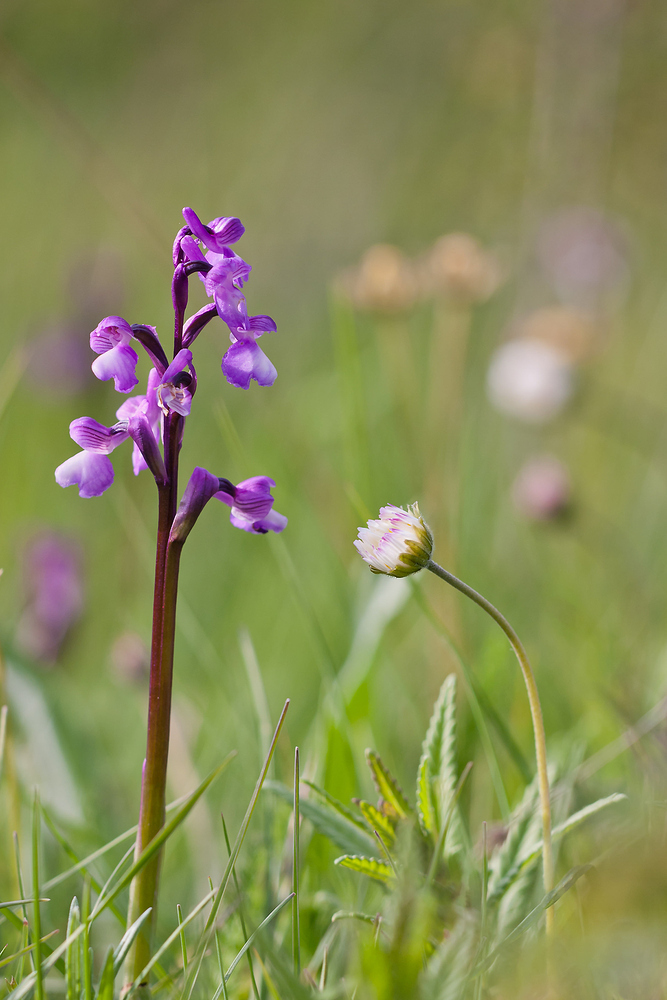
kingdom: Plantae
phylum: Tracheophyta
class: Liliopsida
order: Asparagales
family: Orchidaceae
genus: Anacamptis
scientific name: Anacamptis morio
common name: Green-winged orchid
